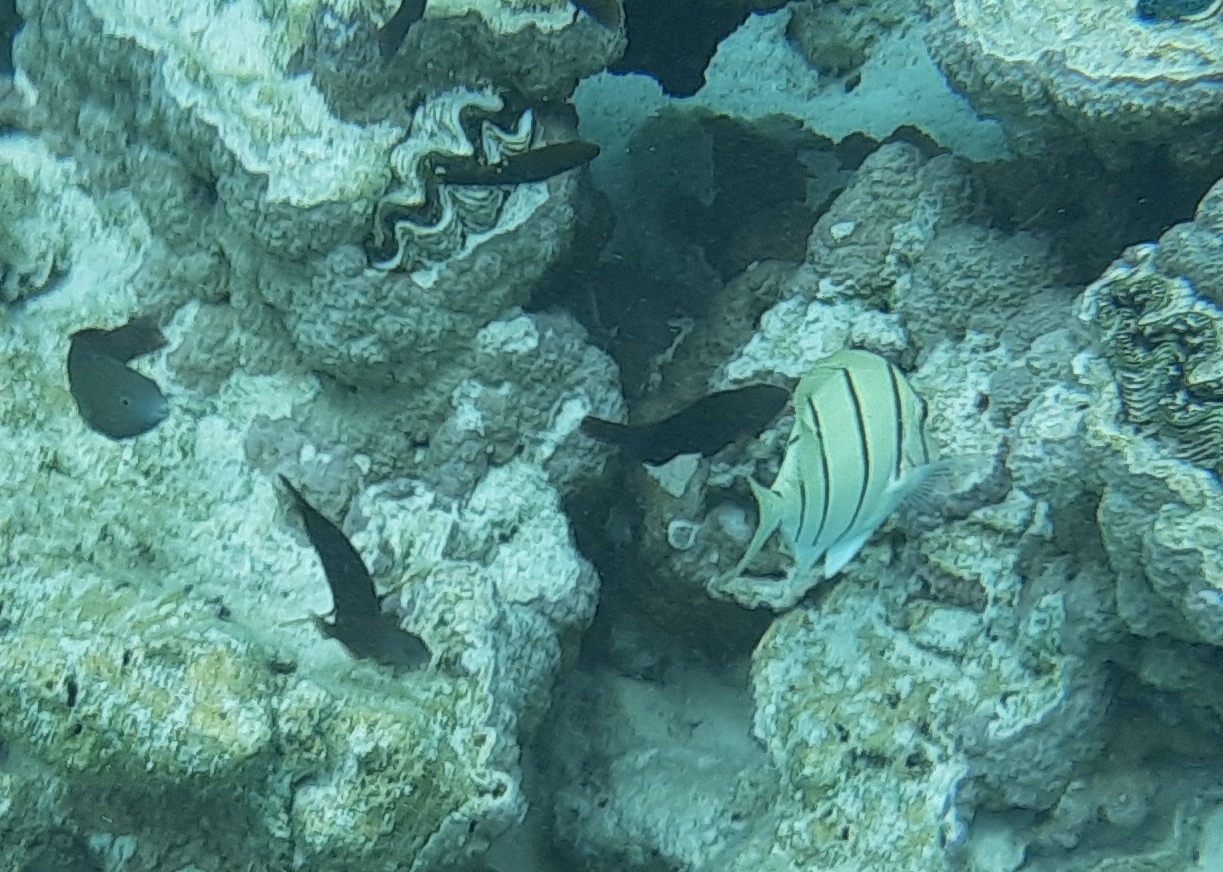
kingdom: Animalia
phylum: Chordata
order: Perciformes
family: Acanthuridae
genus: Acanthurus
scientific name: Acanthurus triostegus
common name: Convict surgeonfish
